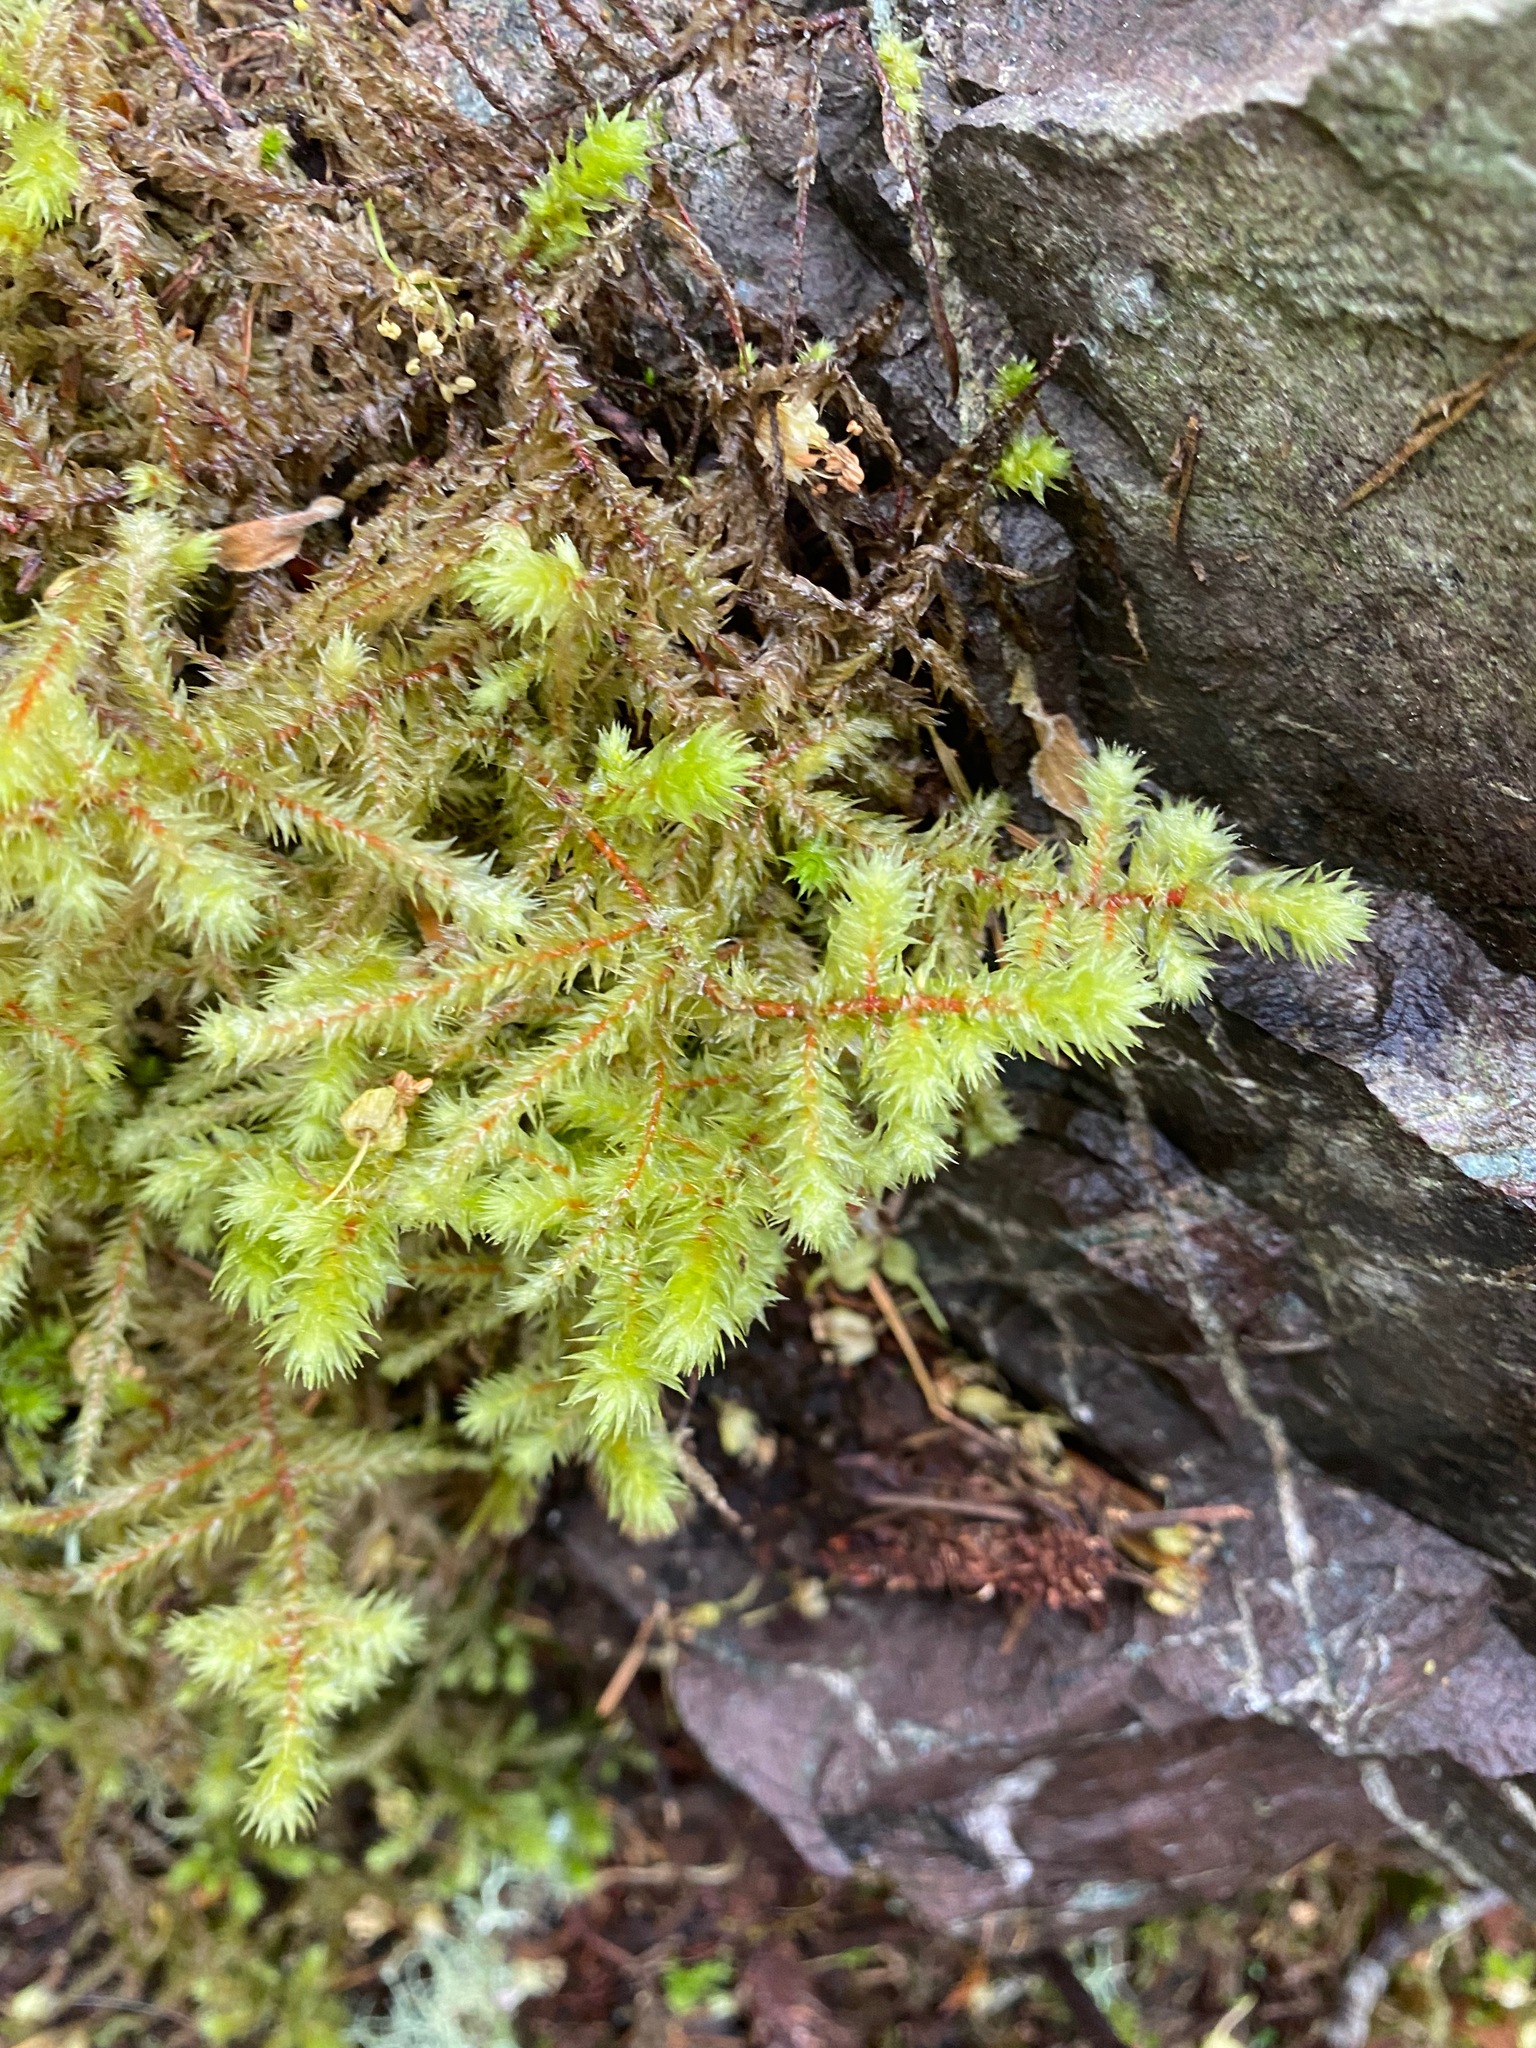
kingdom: Plantae
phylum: Bryophyta
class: Bryopsida
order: Hypnales
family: Hylocomiaceae
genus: Hylocomiadelphus
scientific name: Hylocomiadelphus triquetrus
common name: Rough goose neck moss
